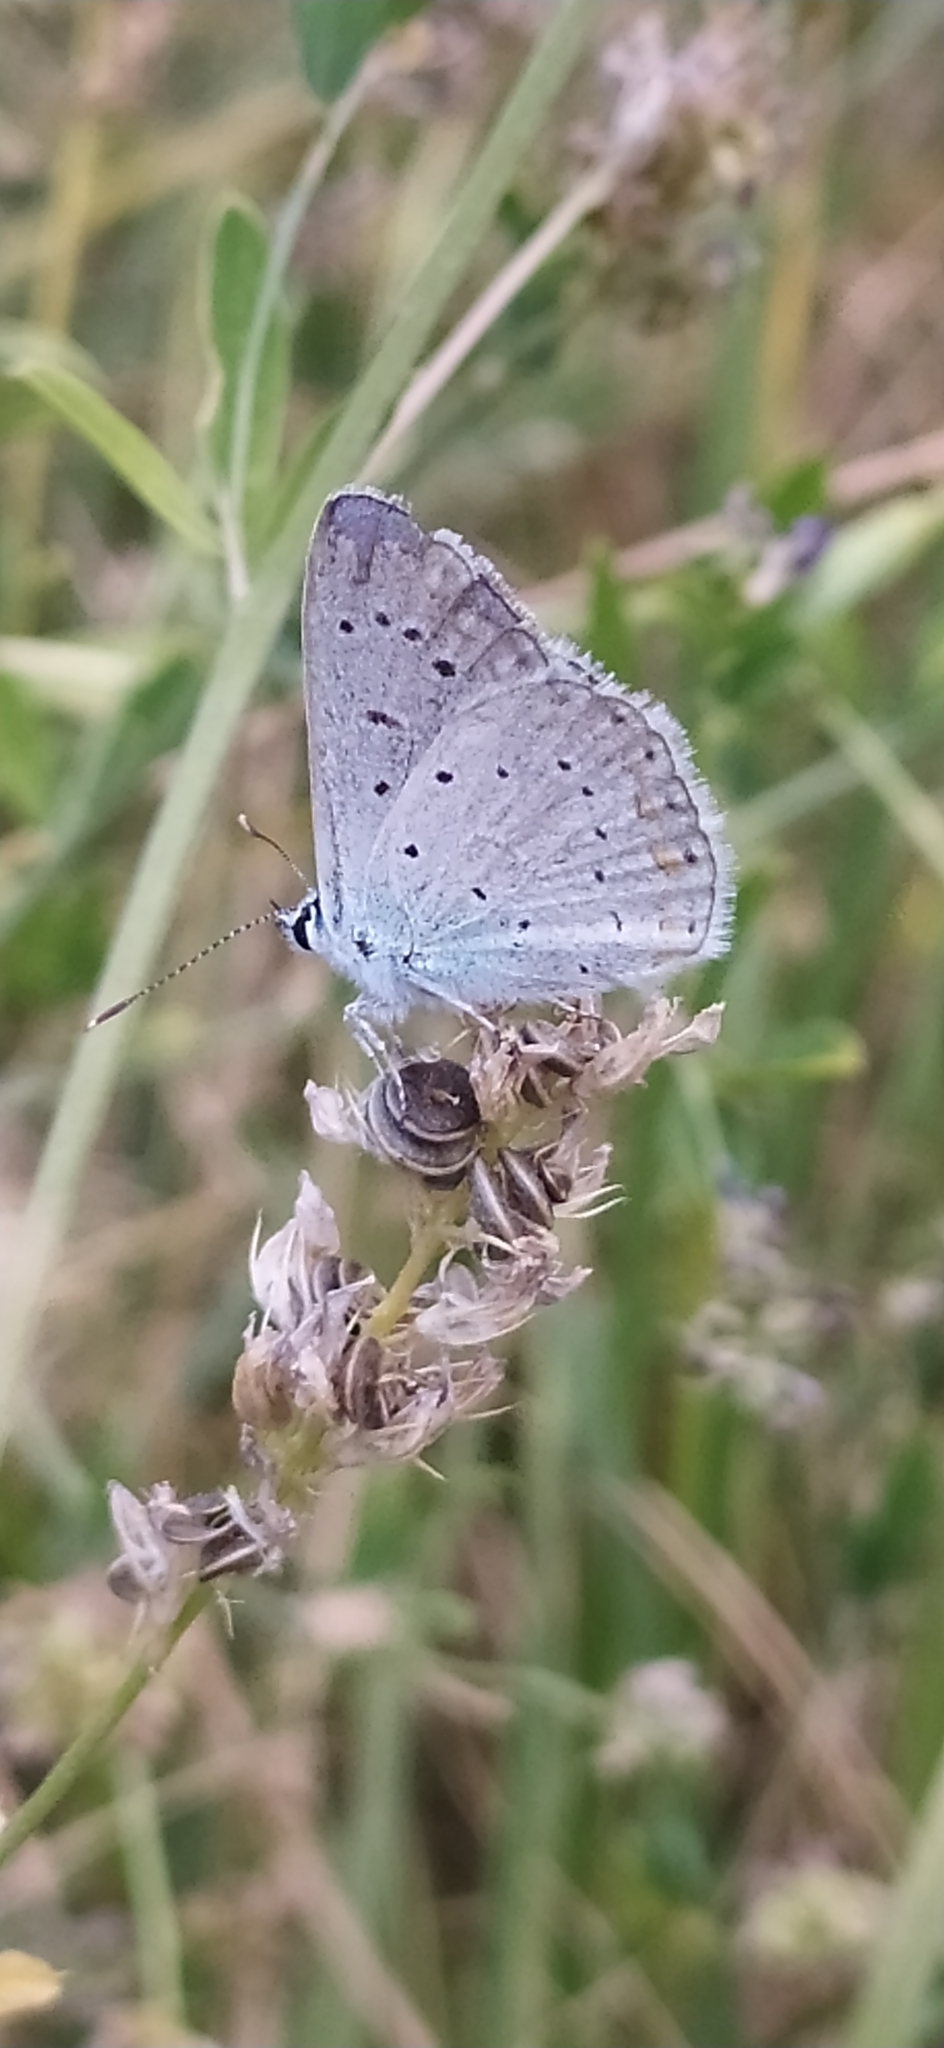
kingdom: Animalia
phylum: Arthropoda
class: Insecta
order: Lepidoptera
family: Lycaenidae
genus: Polyommatus
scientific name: Polyommatus icarus
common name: Common blue
